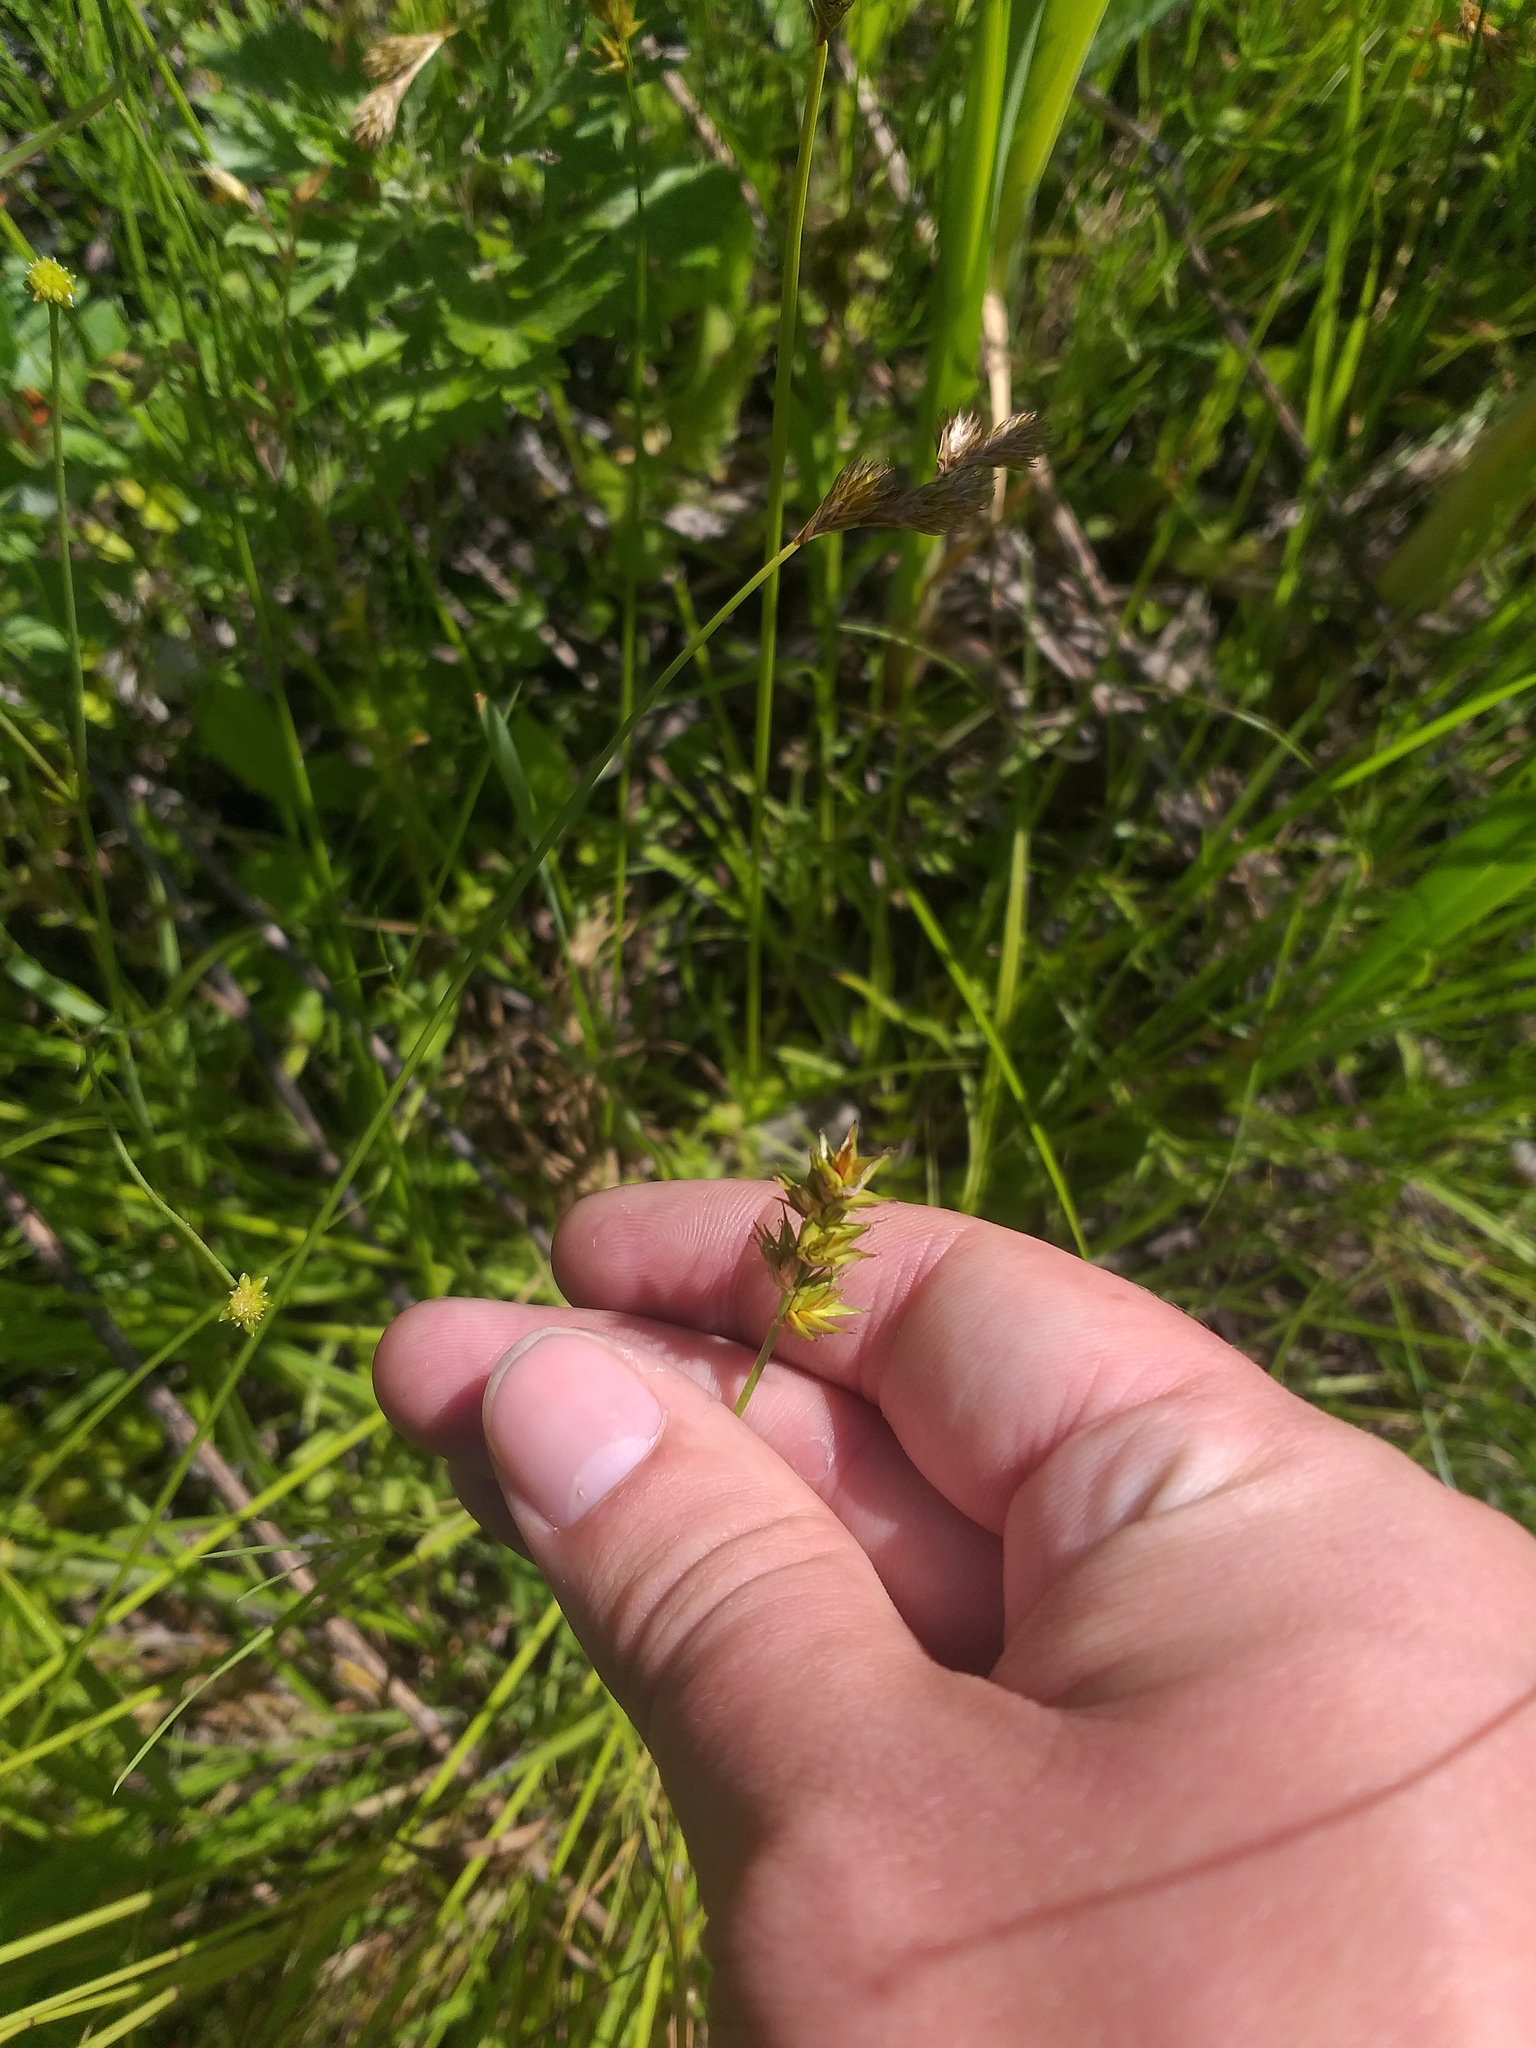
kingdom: Plantae
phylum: Tracheophyta
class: Liliopsida
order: Poales
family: Cyperaceae
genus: Carex
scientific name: Carex spicata
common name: Spiked sedge
